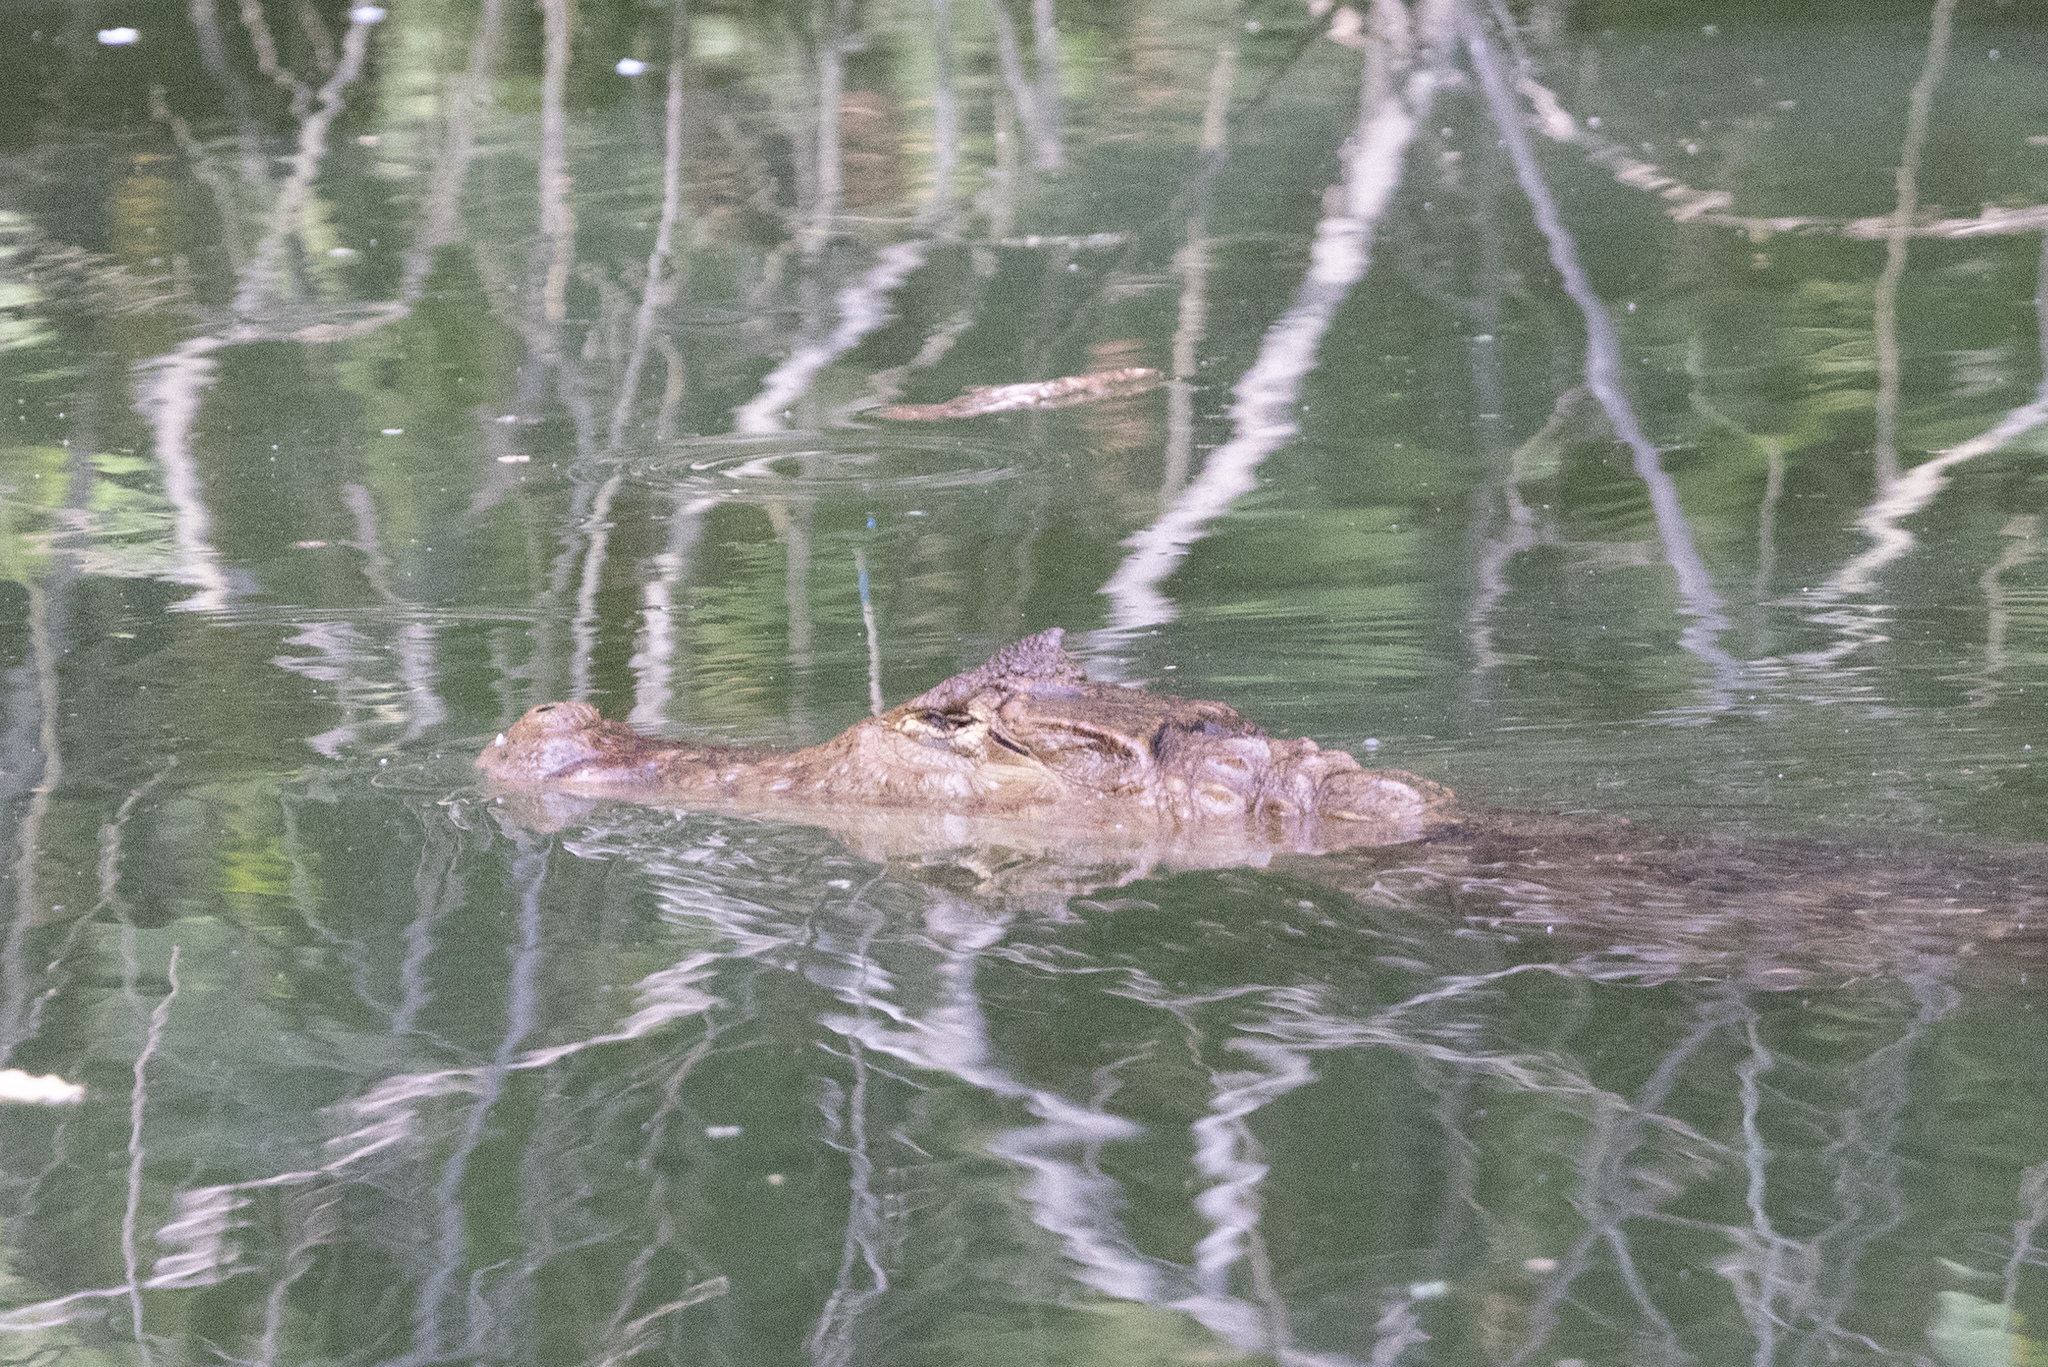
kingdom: Animalia
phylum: Chordata
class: Crocodylia
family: Alligatoridae
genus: Caiman
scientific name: Caiman crocodilus
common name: Common caiman
